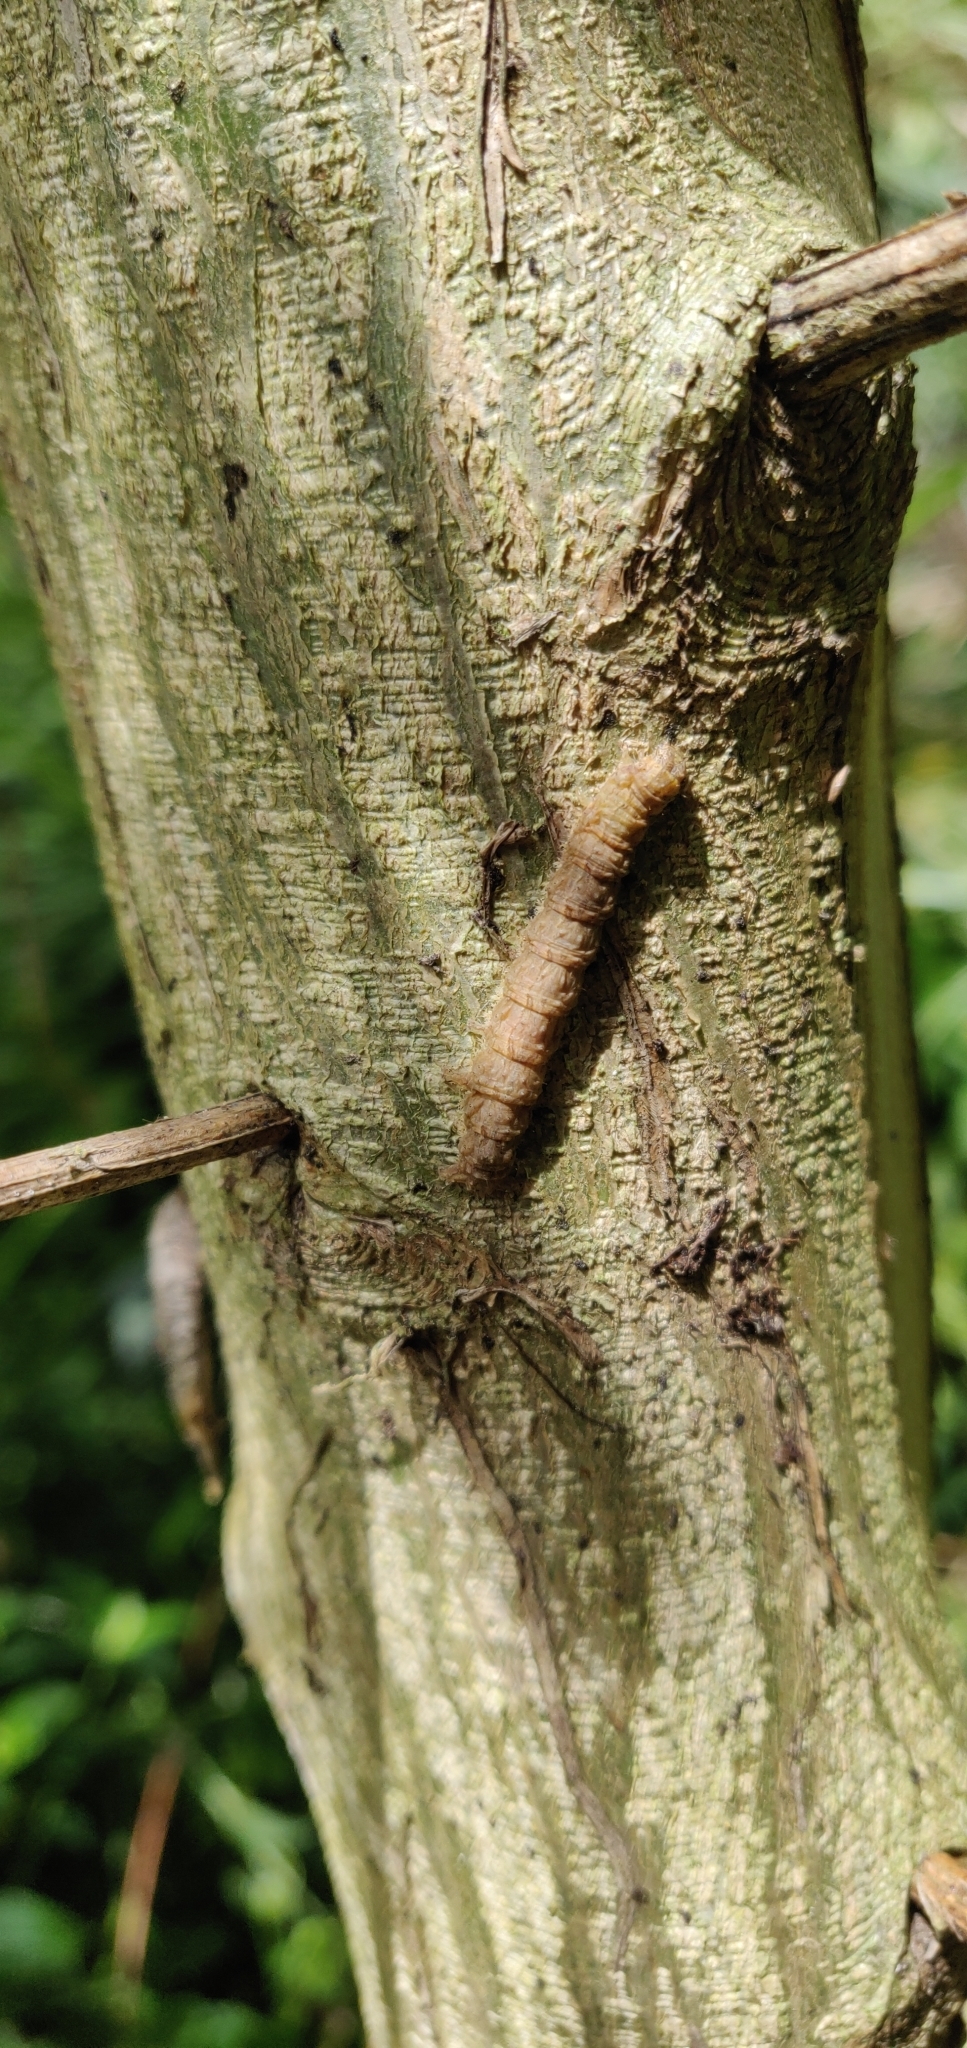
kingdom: Animalia
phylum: Arthropoda
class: Insecta
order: Lepidoptera
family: Geometridae
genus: Declana
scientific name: Declana floccosa
